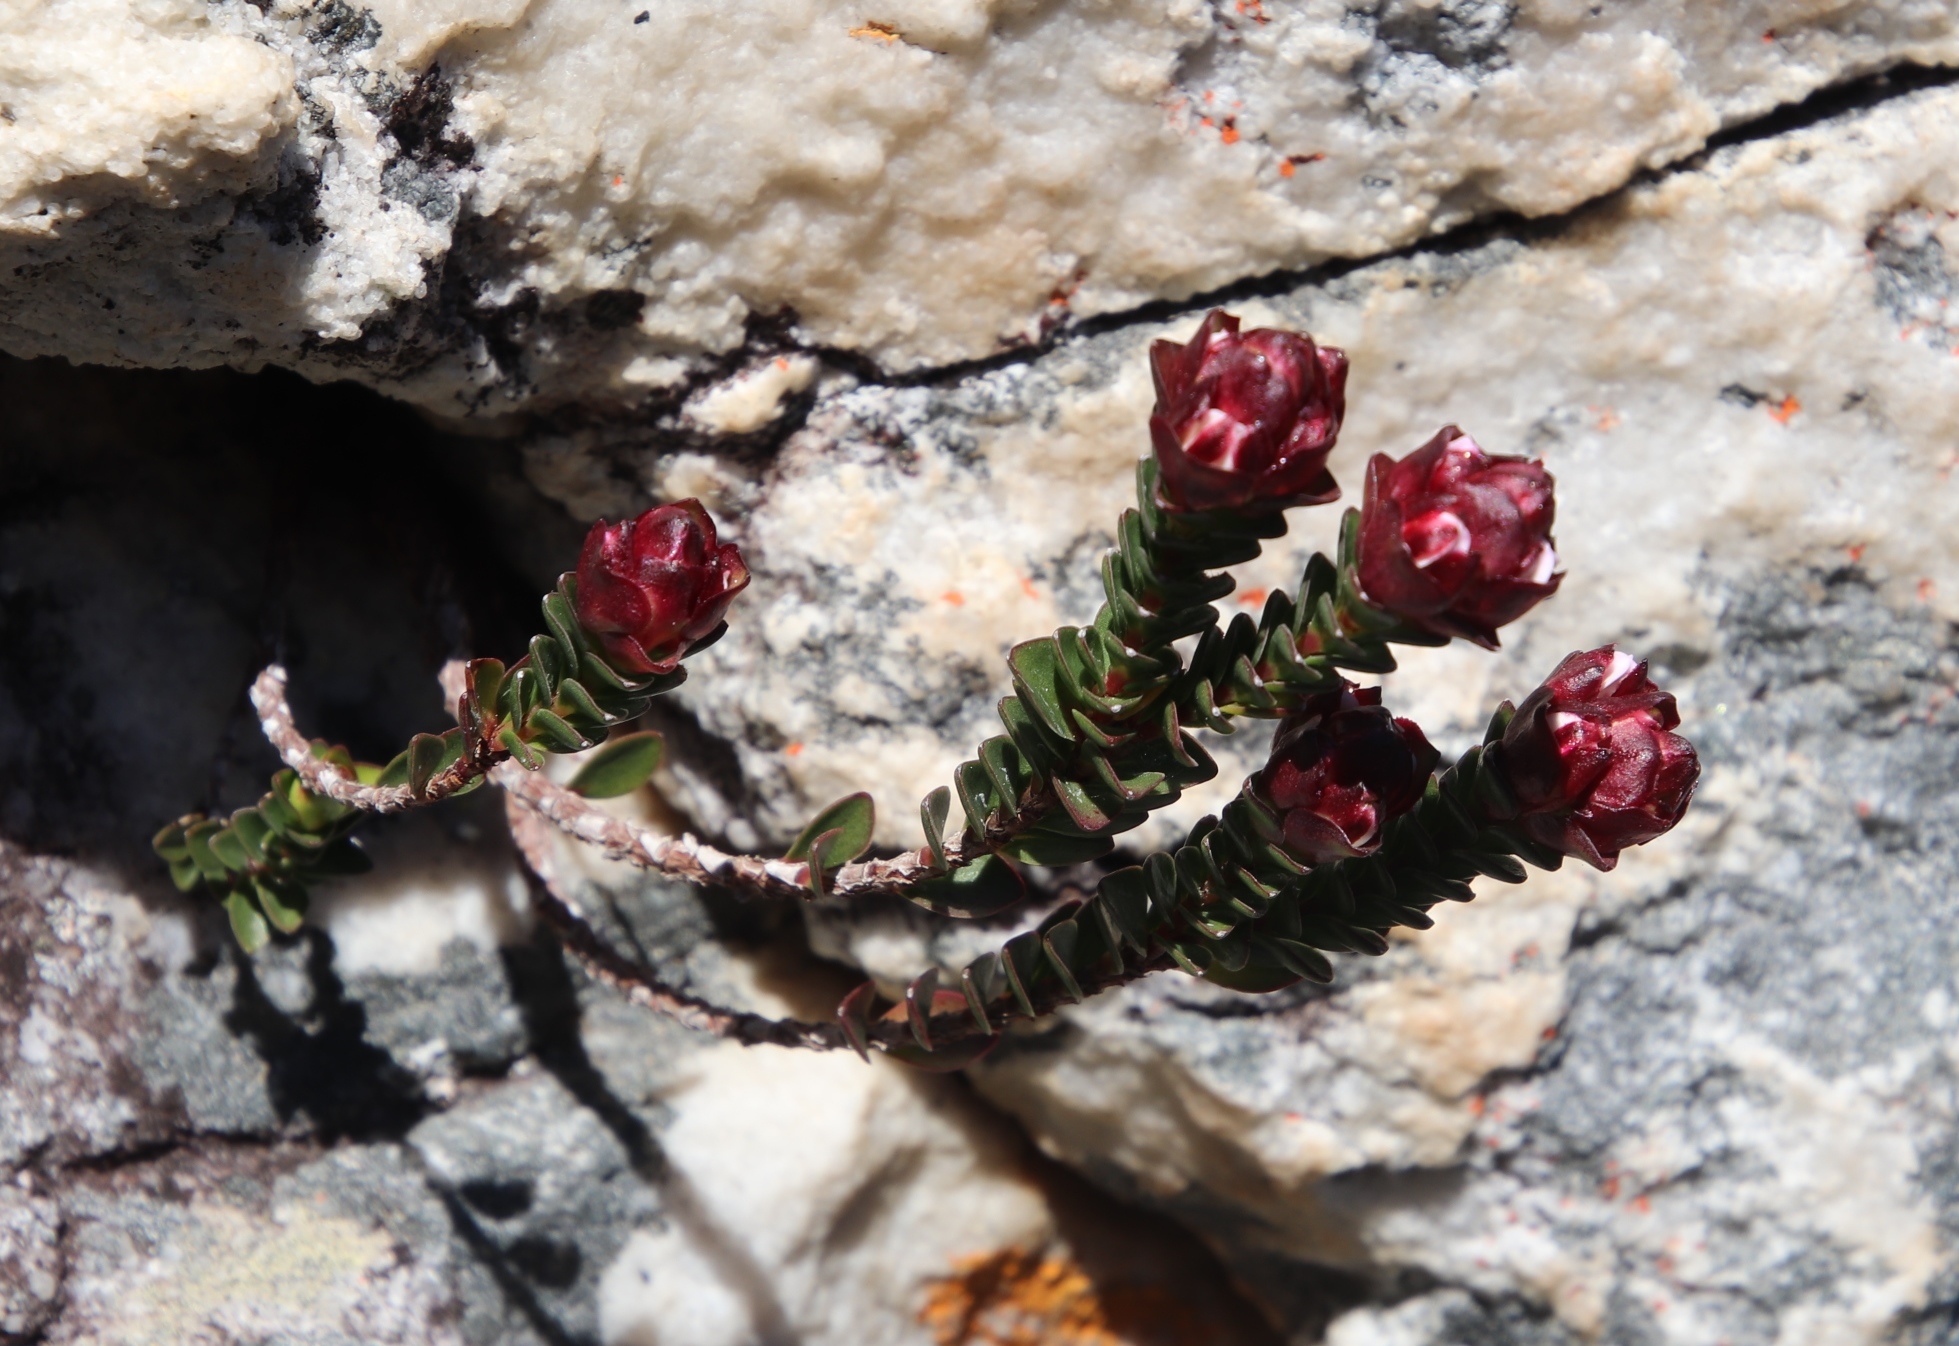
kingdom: Plantae
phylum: Tracheophyta
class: Magnoliopsida
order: Myrtales
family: Penaeaceae
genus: Sonderothamnus
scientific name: Sonderothamnus petraeus
